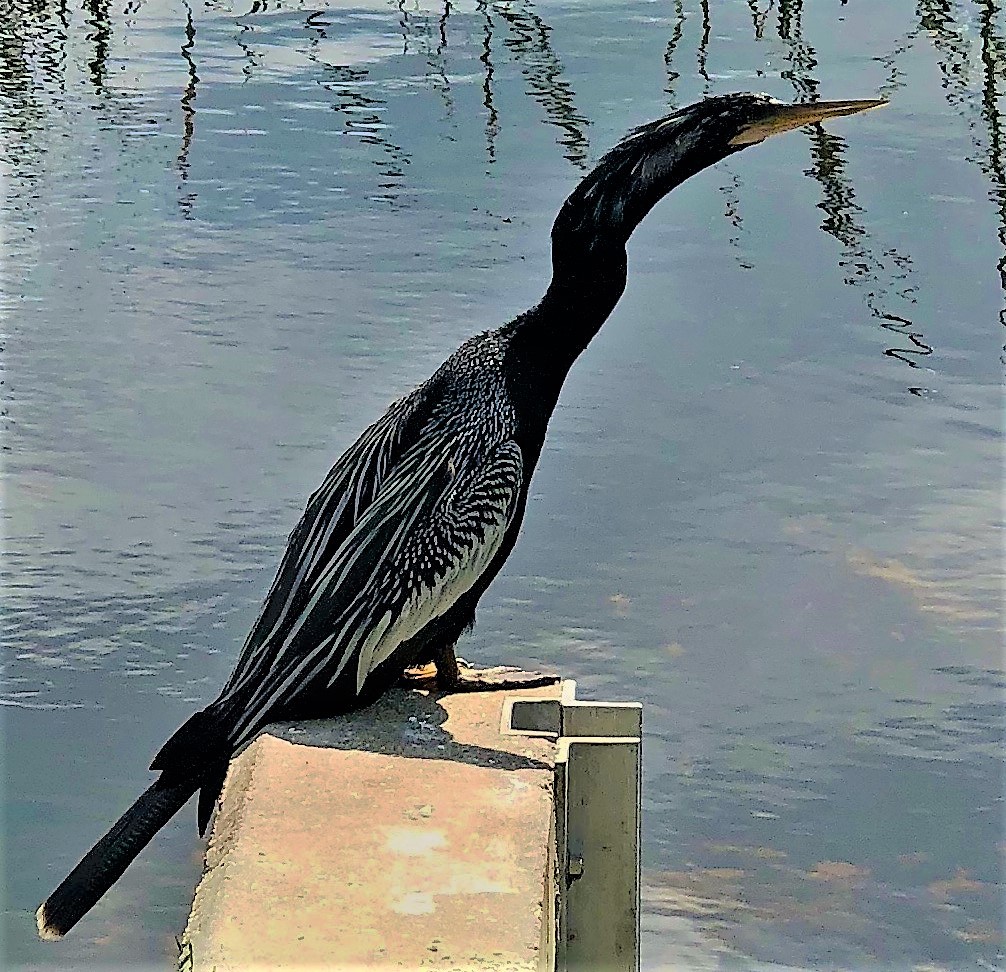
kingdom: Animalia
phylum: Chordata
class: Aves
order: Suliformes
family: Anhingidae
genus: Anhinga
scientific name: Anhinga anhinga
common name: Anhinga
